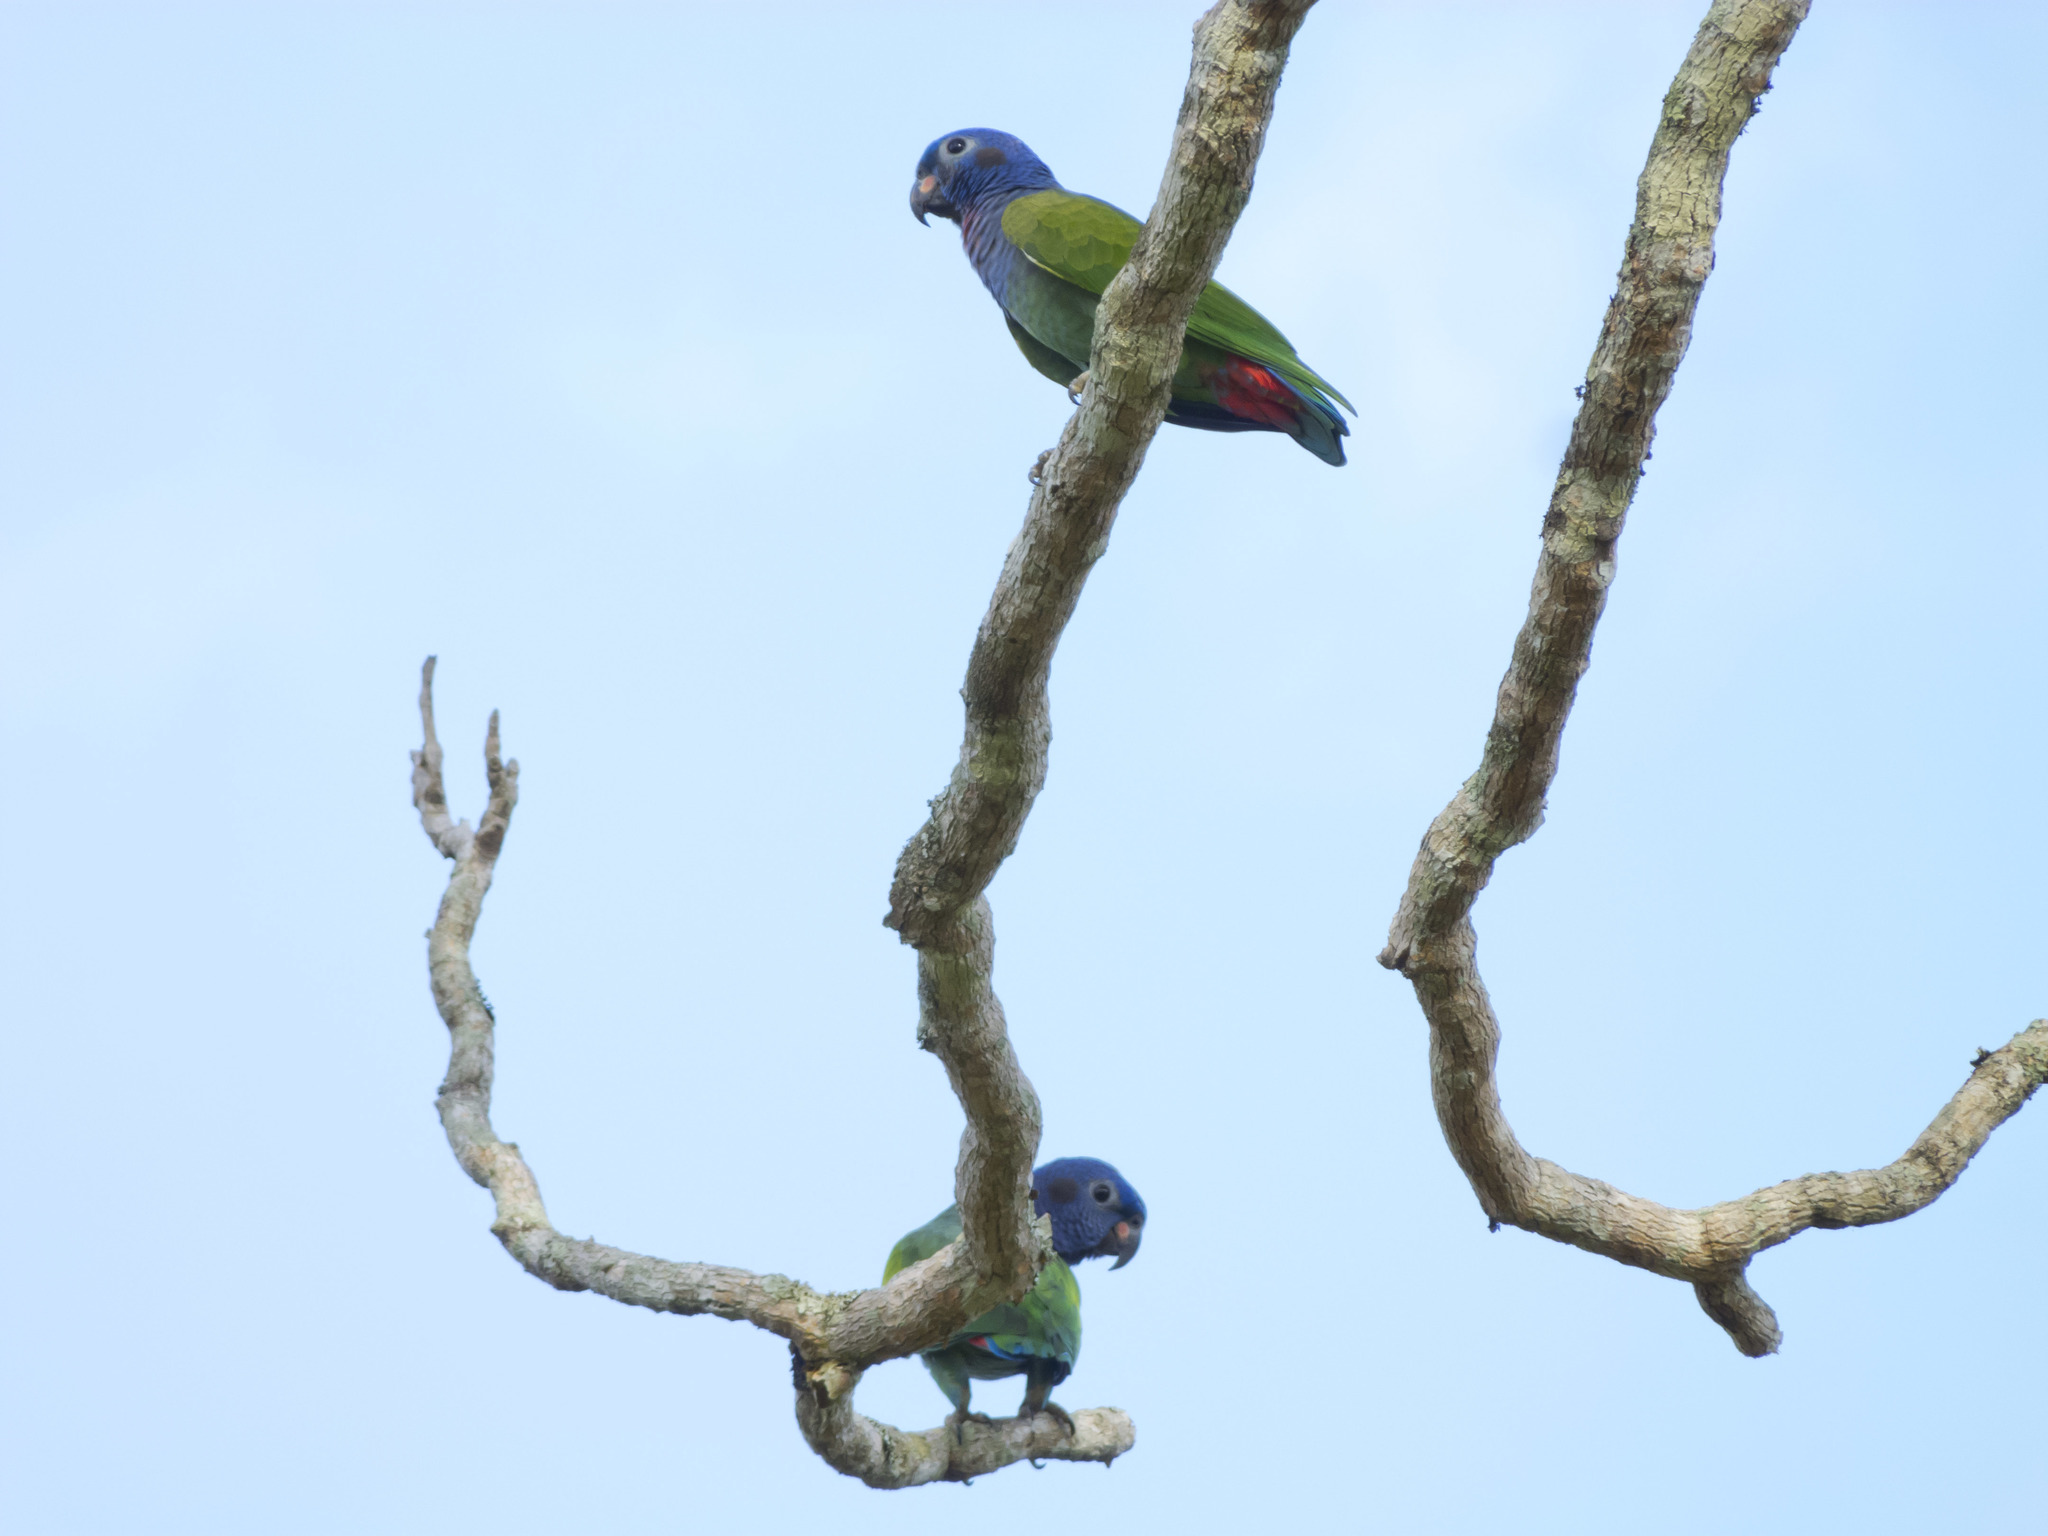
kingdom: Animalia
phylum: Chordata
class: Aves
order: Psittaciformes
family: Psittacidae
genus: Pionus
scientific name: Pionus menstruus
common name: Blue-headed parrot
